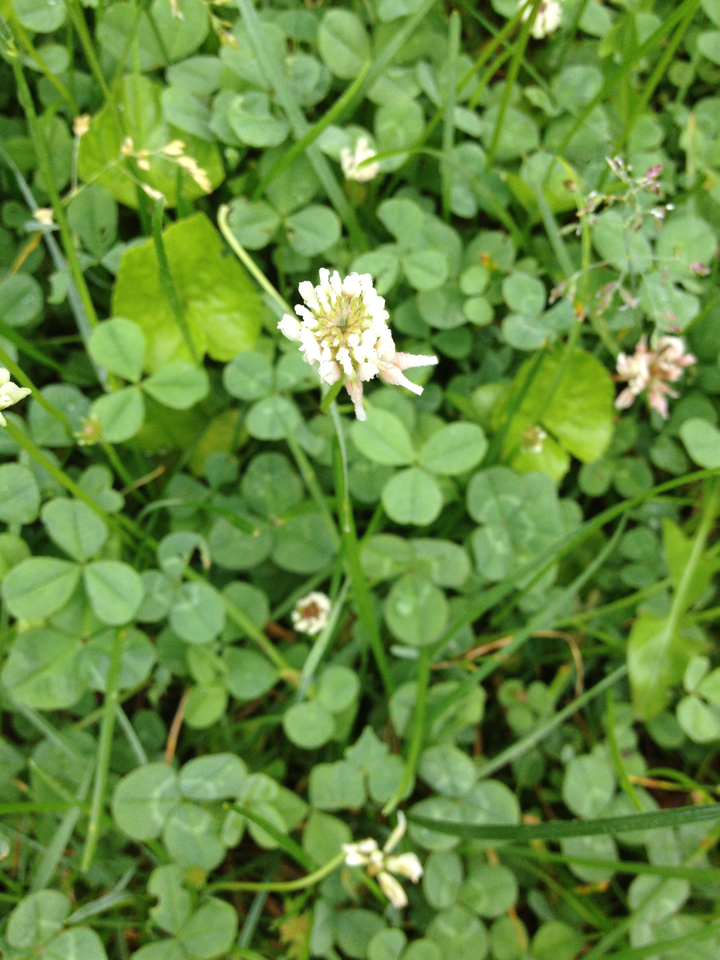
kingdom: Plantae
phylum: Tracheophyta
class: Magnoliopsida
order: Fabales
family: Fabaceae
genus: Trifolium
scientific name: Trifolium repens
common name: White clover
